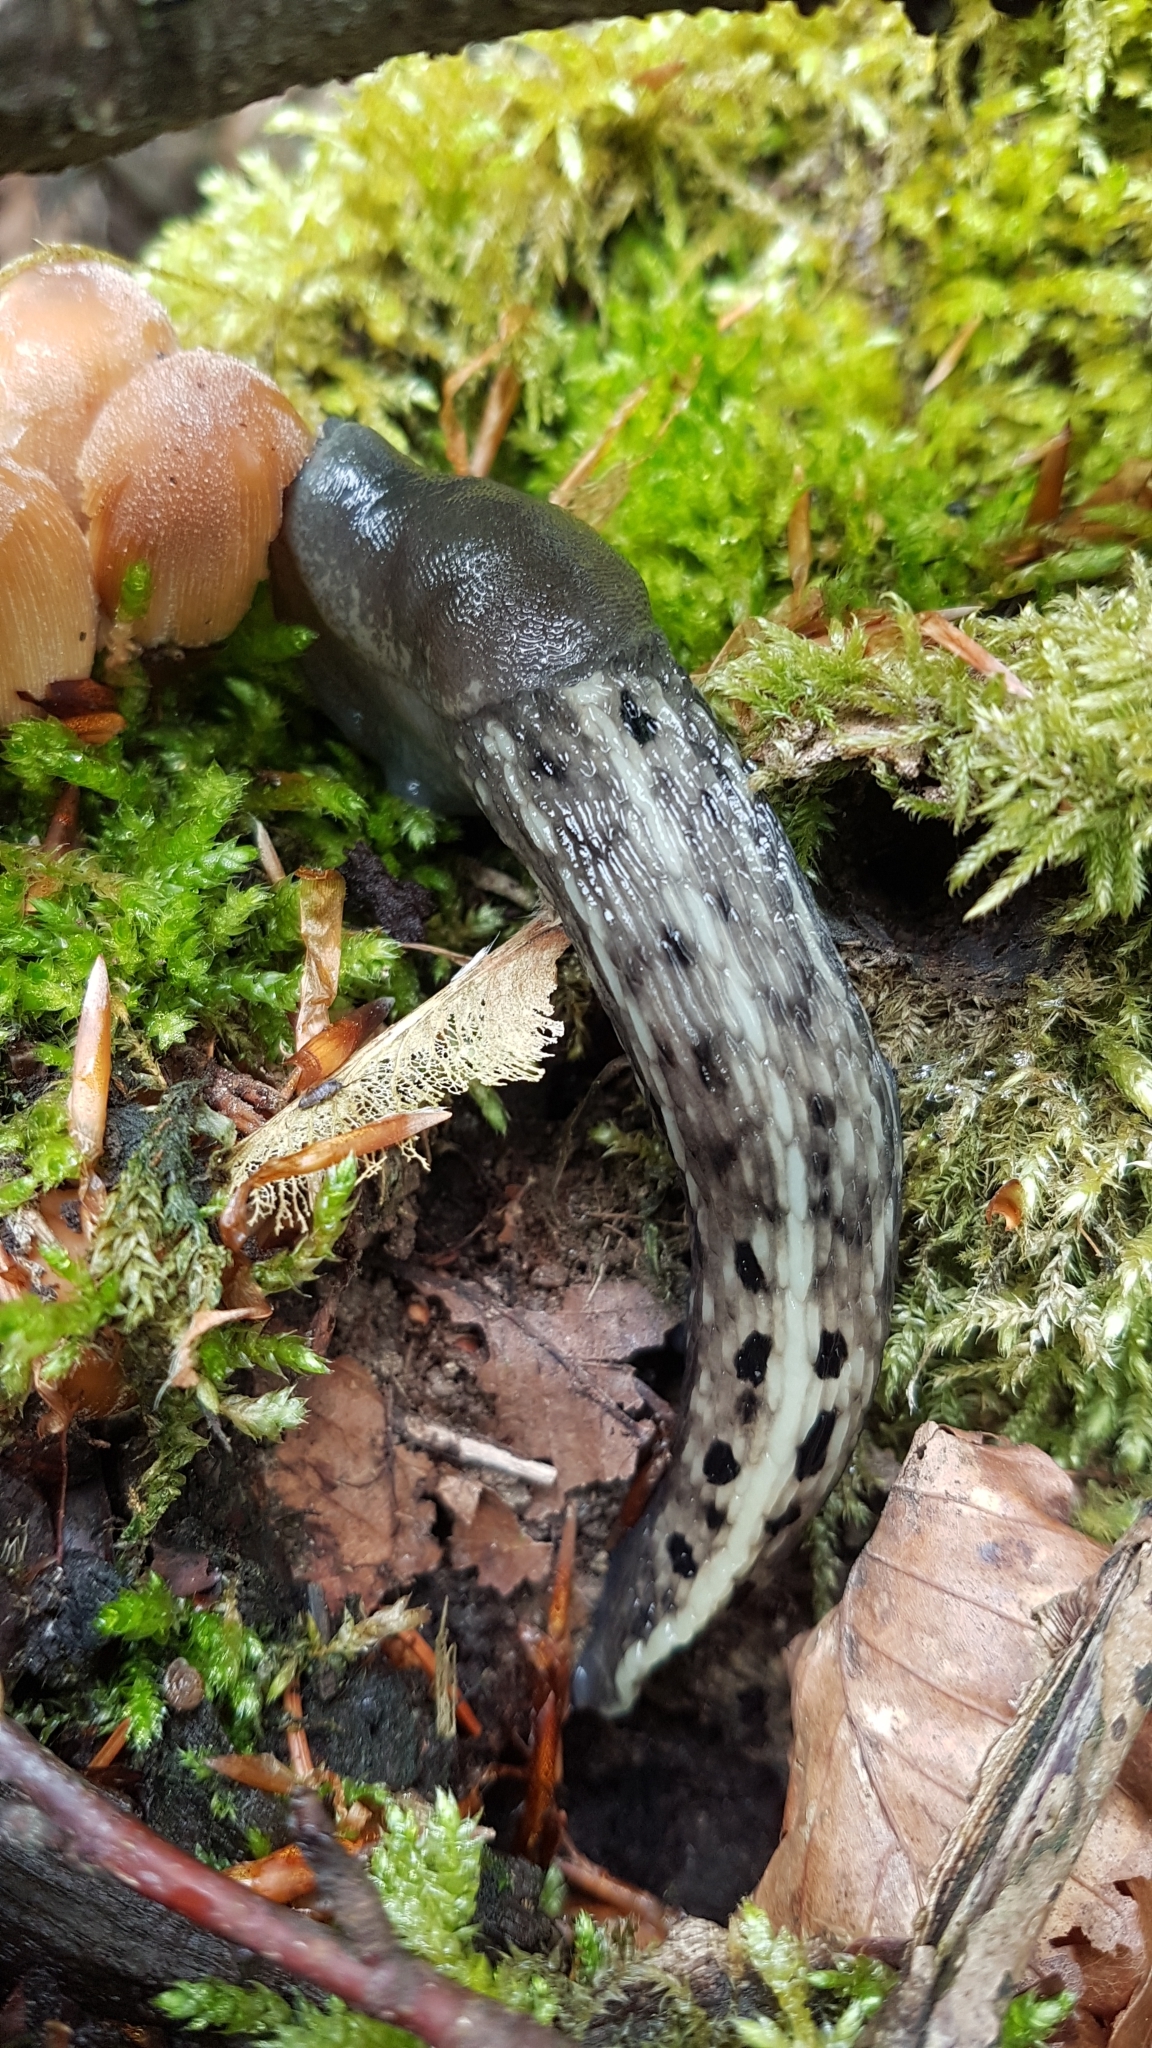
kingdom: Animalia
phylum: Mollusca
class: Gastropoda
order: Stylommatophora
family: Limacidae
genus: Limax
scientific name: Limax cinereoniger
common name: Ash-black slug
